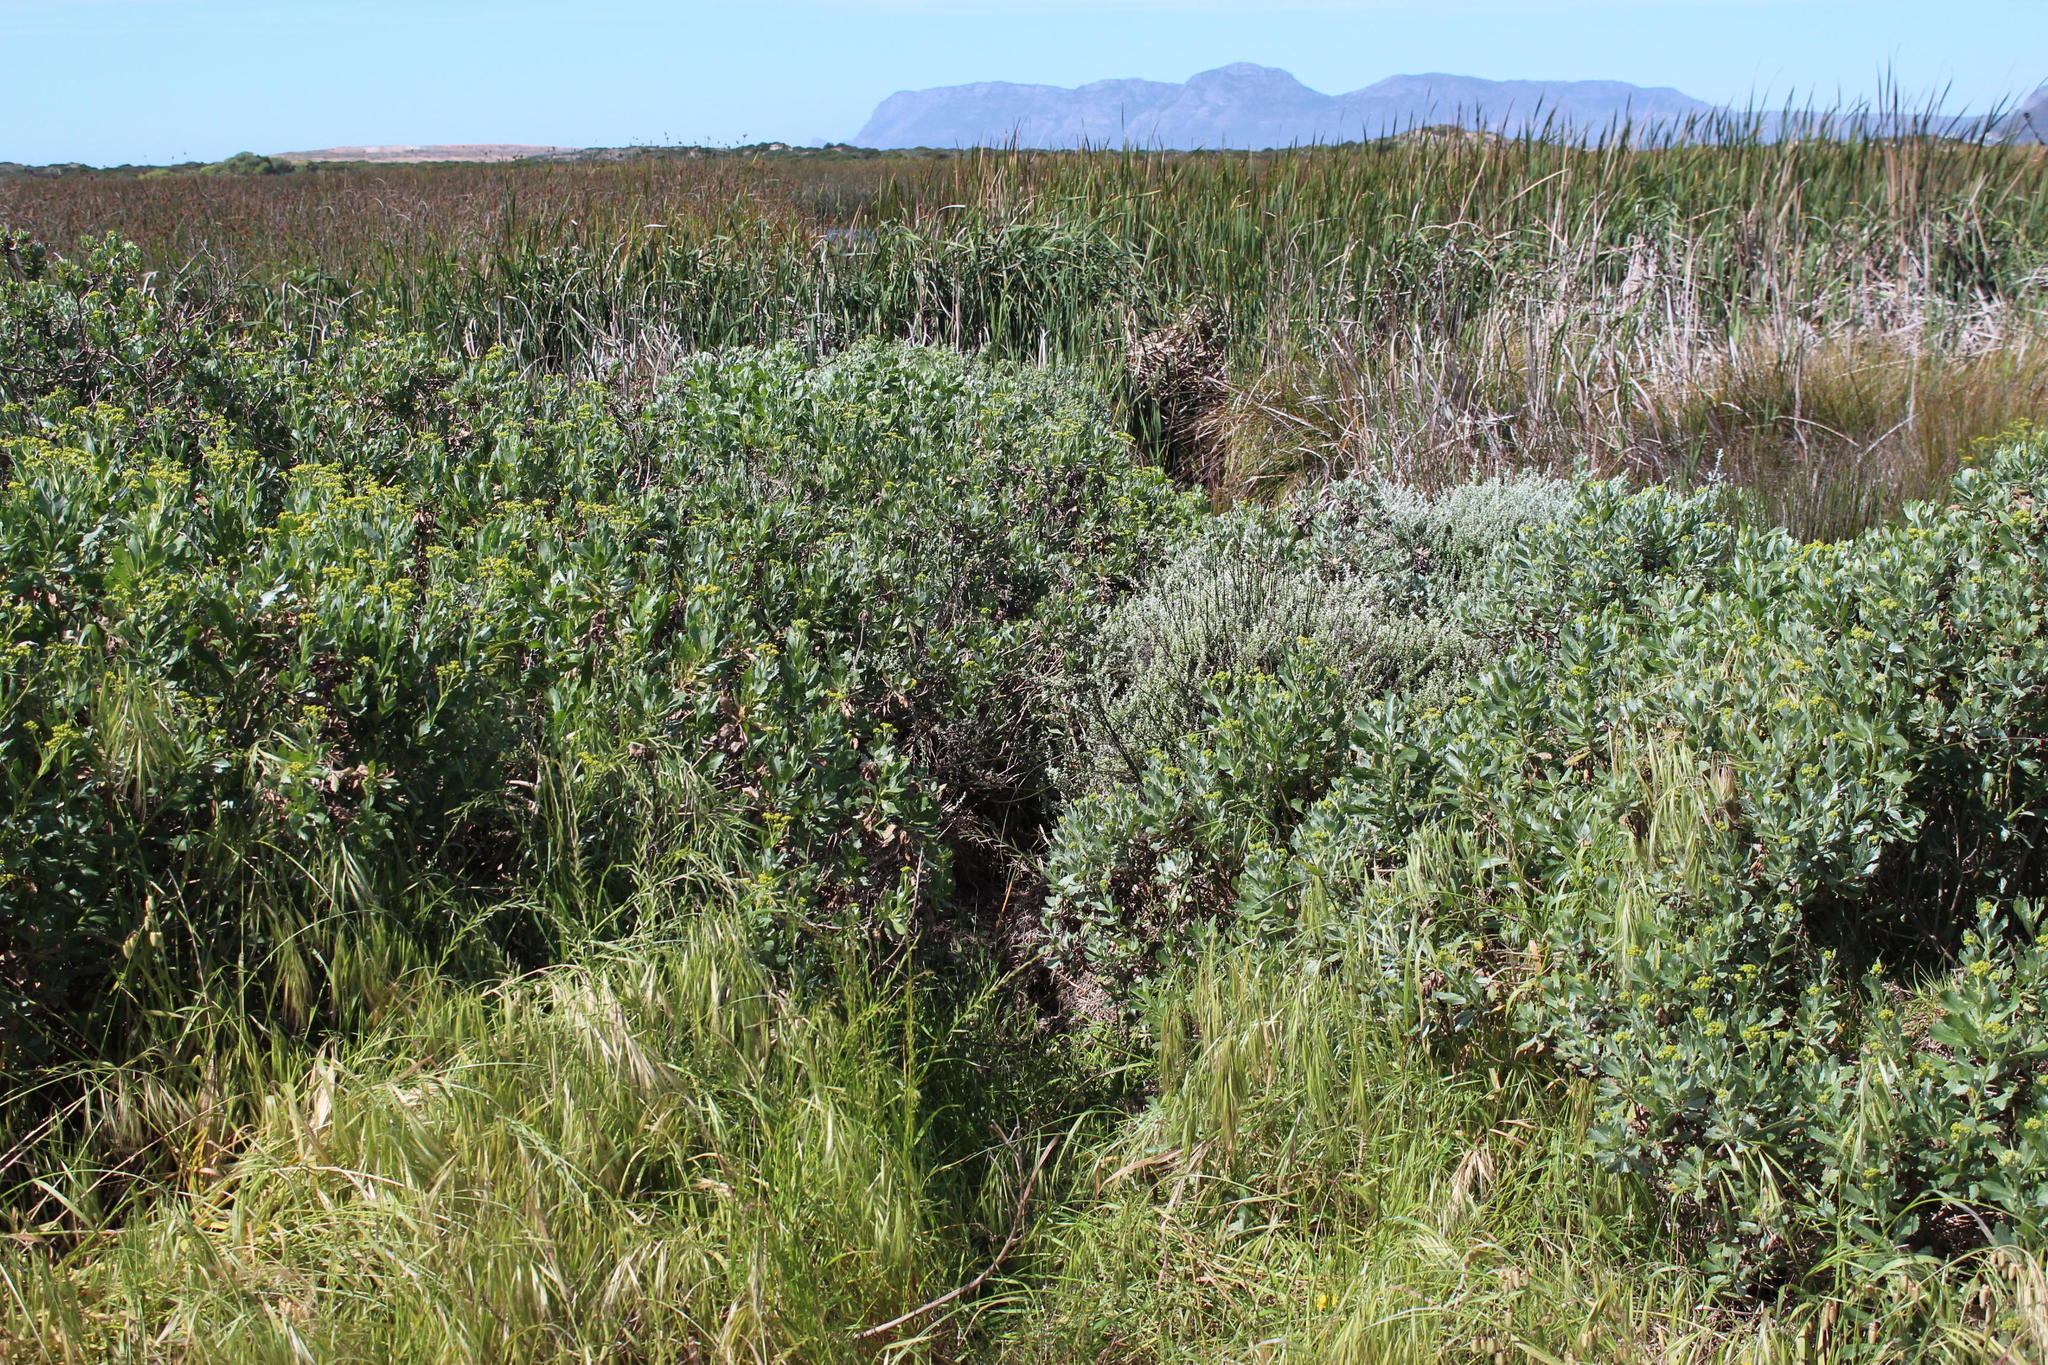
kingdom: Plantae
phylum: Tracheophyta
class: Liliopsida
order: Poales
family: Poaceae
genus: Avena
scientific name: Avena fatua
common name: Wild oat
